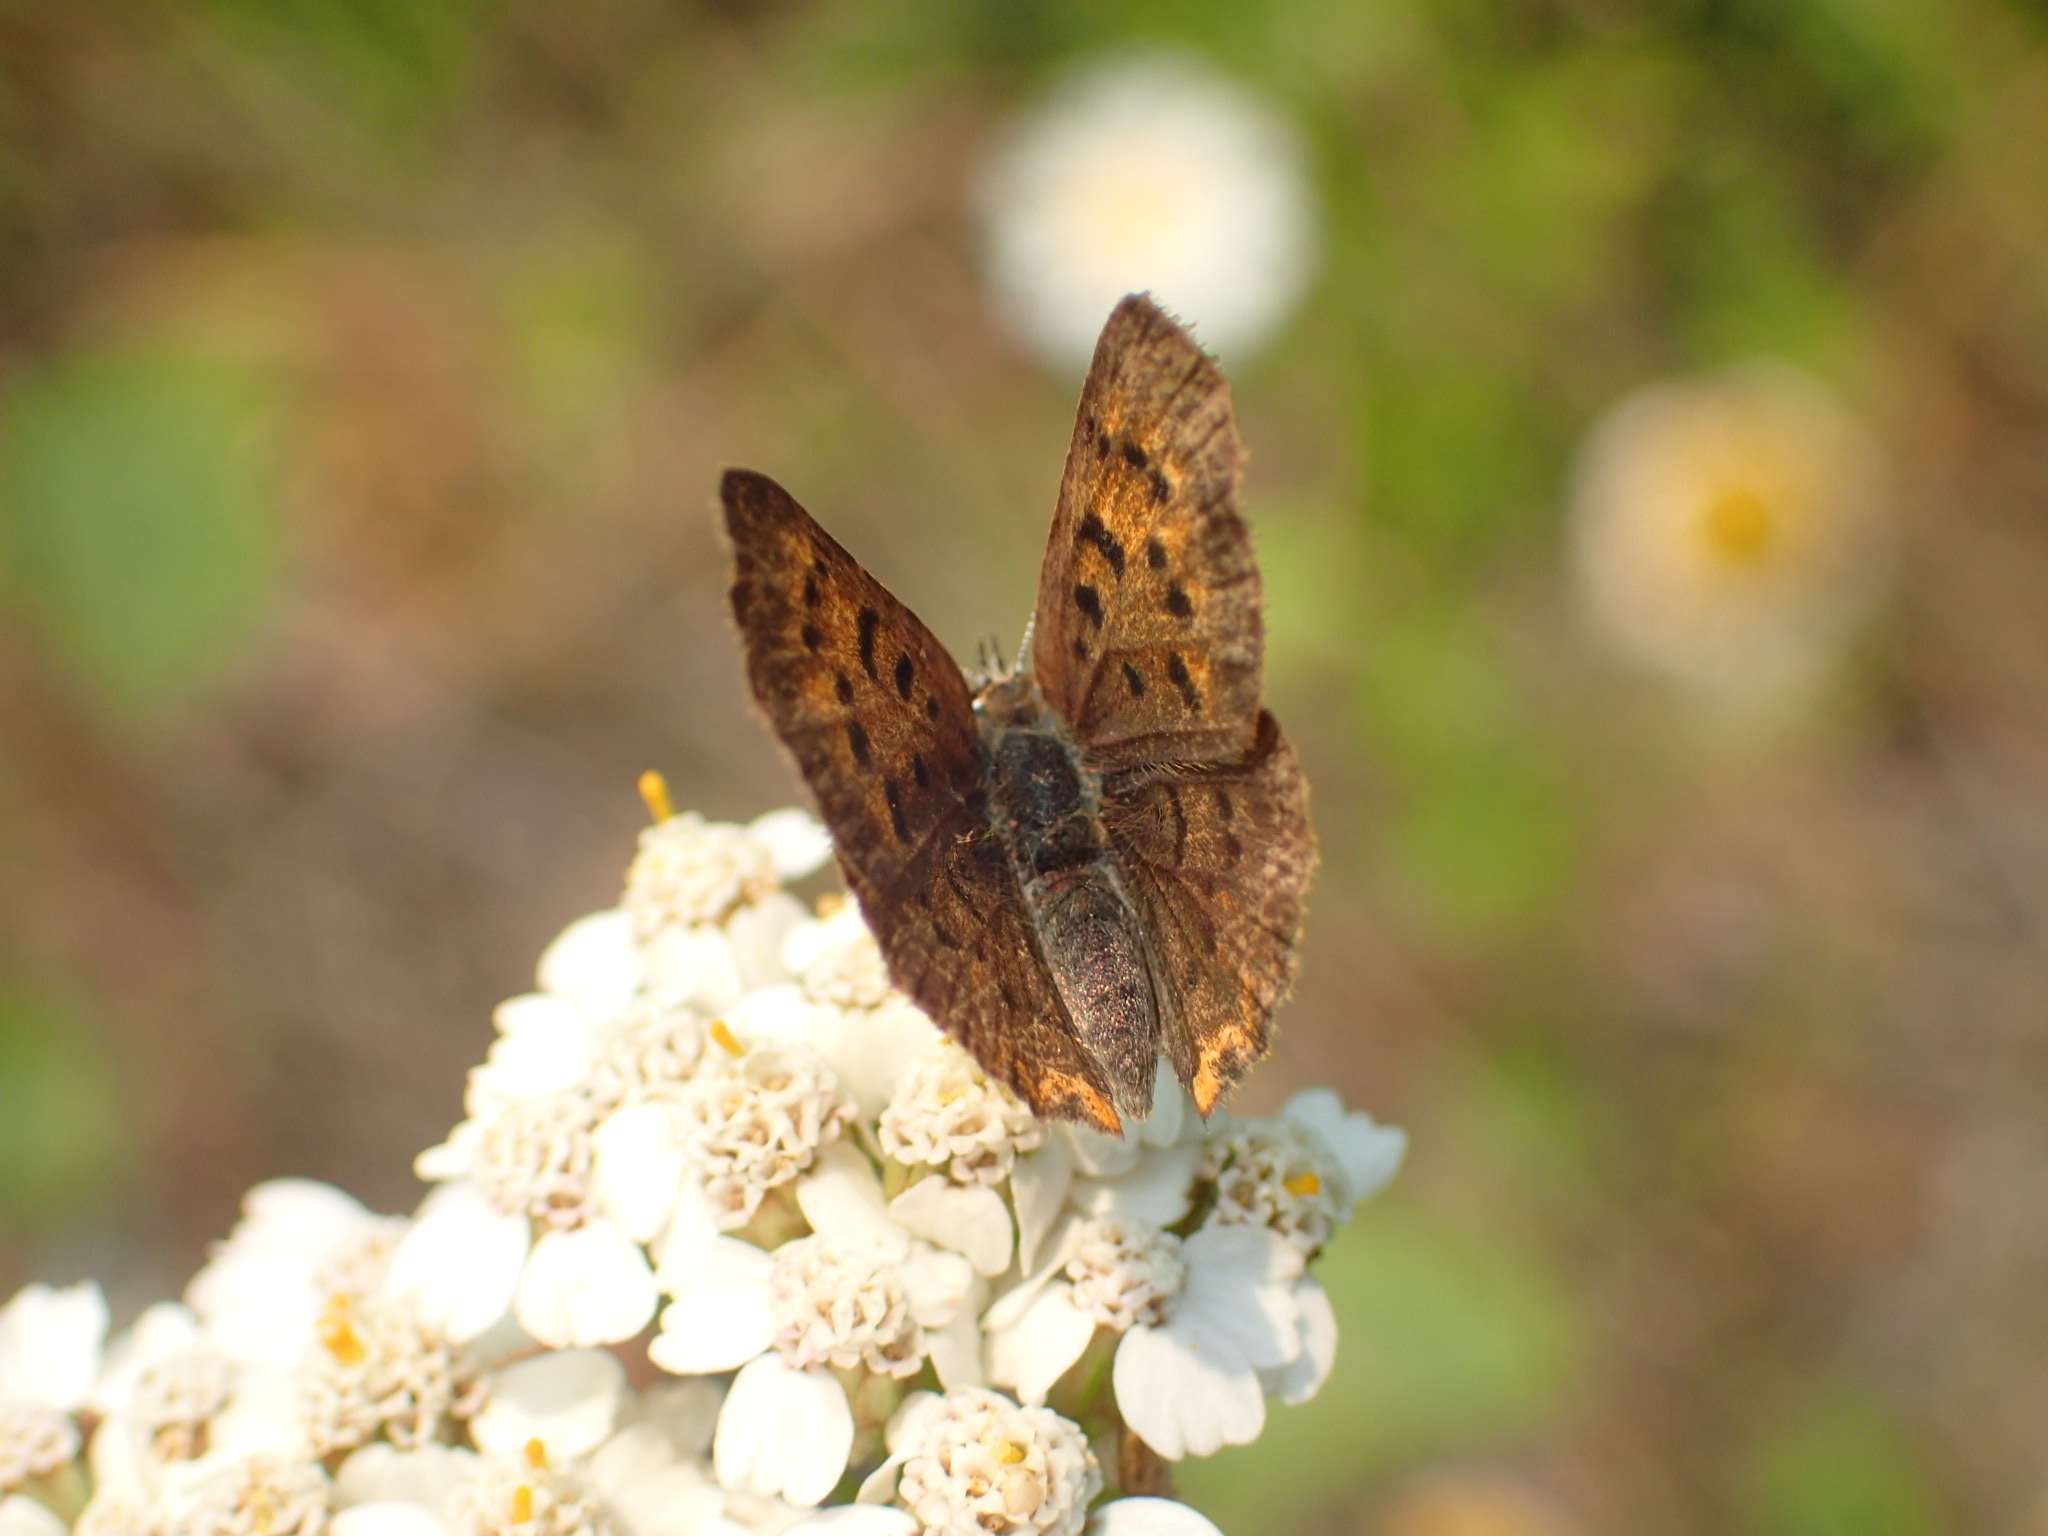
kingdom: Animalia
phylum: Arthropoda
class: Insecta
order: Lepidoptera
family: Lycaenidae
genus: Tharsalea
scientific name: Tharsalea dorcas
